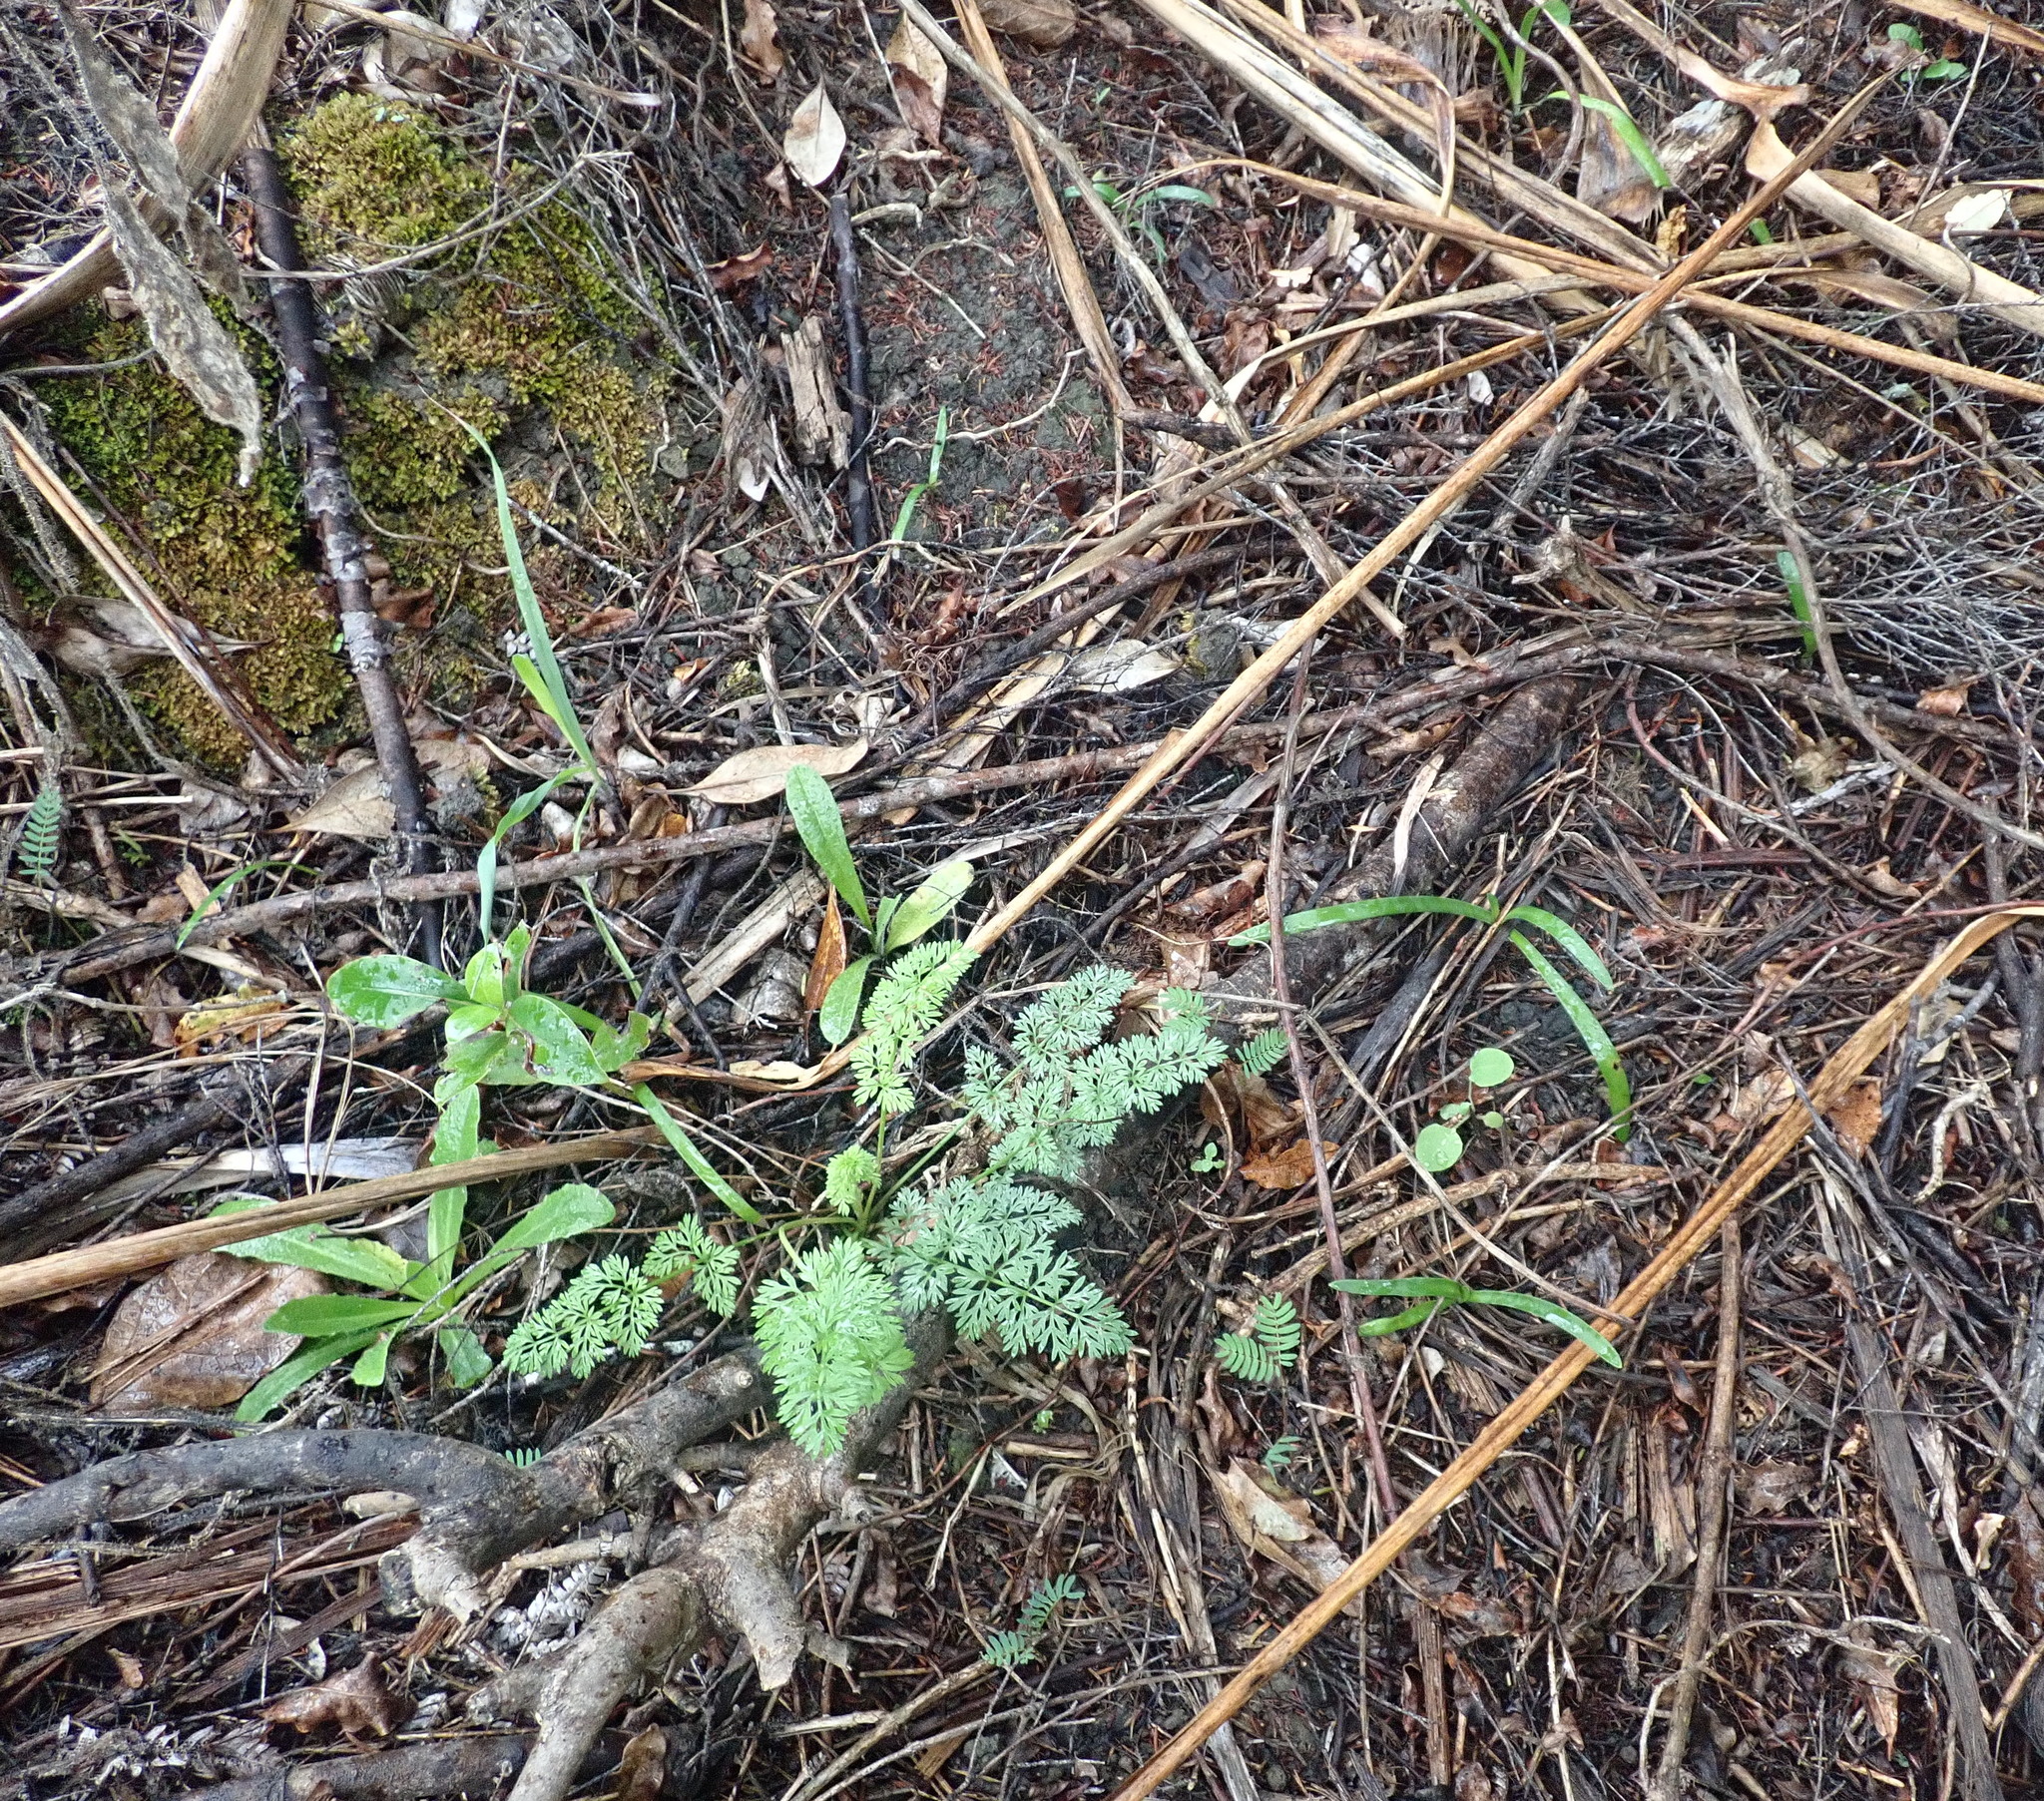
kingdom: Plantae
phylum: Tracheophyta
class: Liliopsida
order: Asparagales
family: Amaryllidaceae
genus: Agapanthus
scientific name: Agapanthus praecox
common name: African-lily
